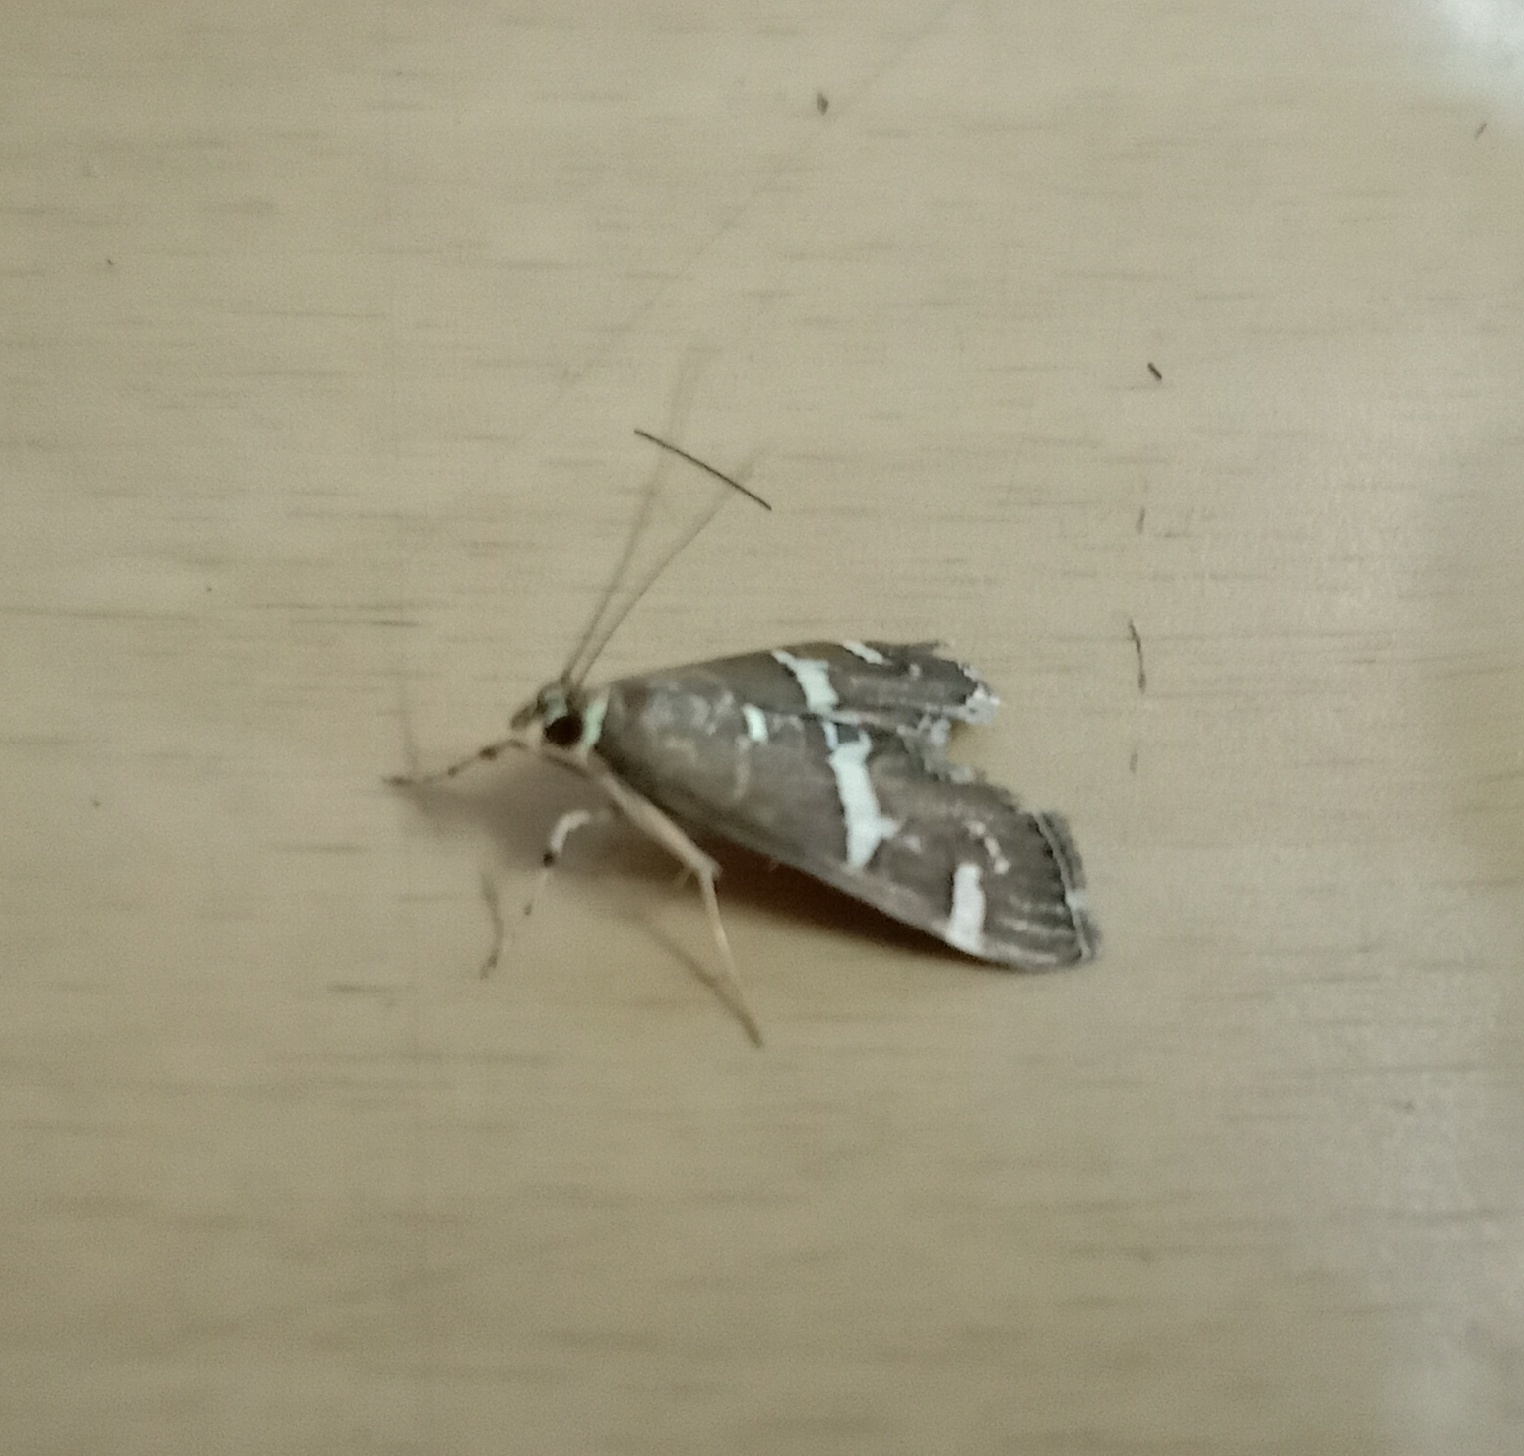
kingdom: Animalia
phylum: Arthropoda
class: Insecta
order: Lepidoptera
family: Crambidae
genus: Spoladea
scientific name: Spoladea recurvalis
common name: Beet webworm moth
